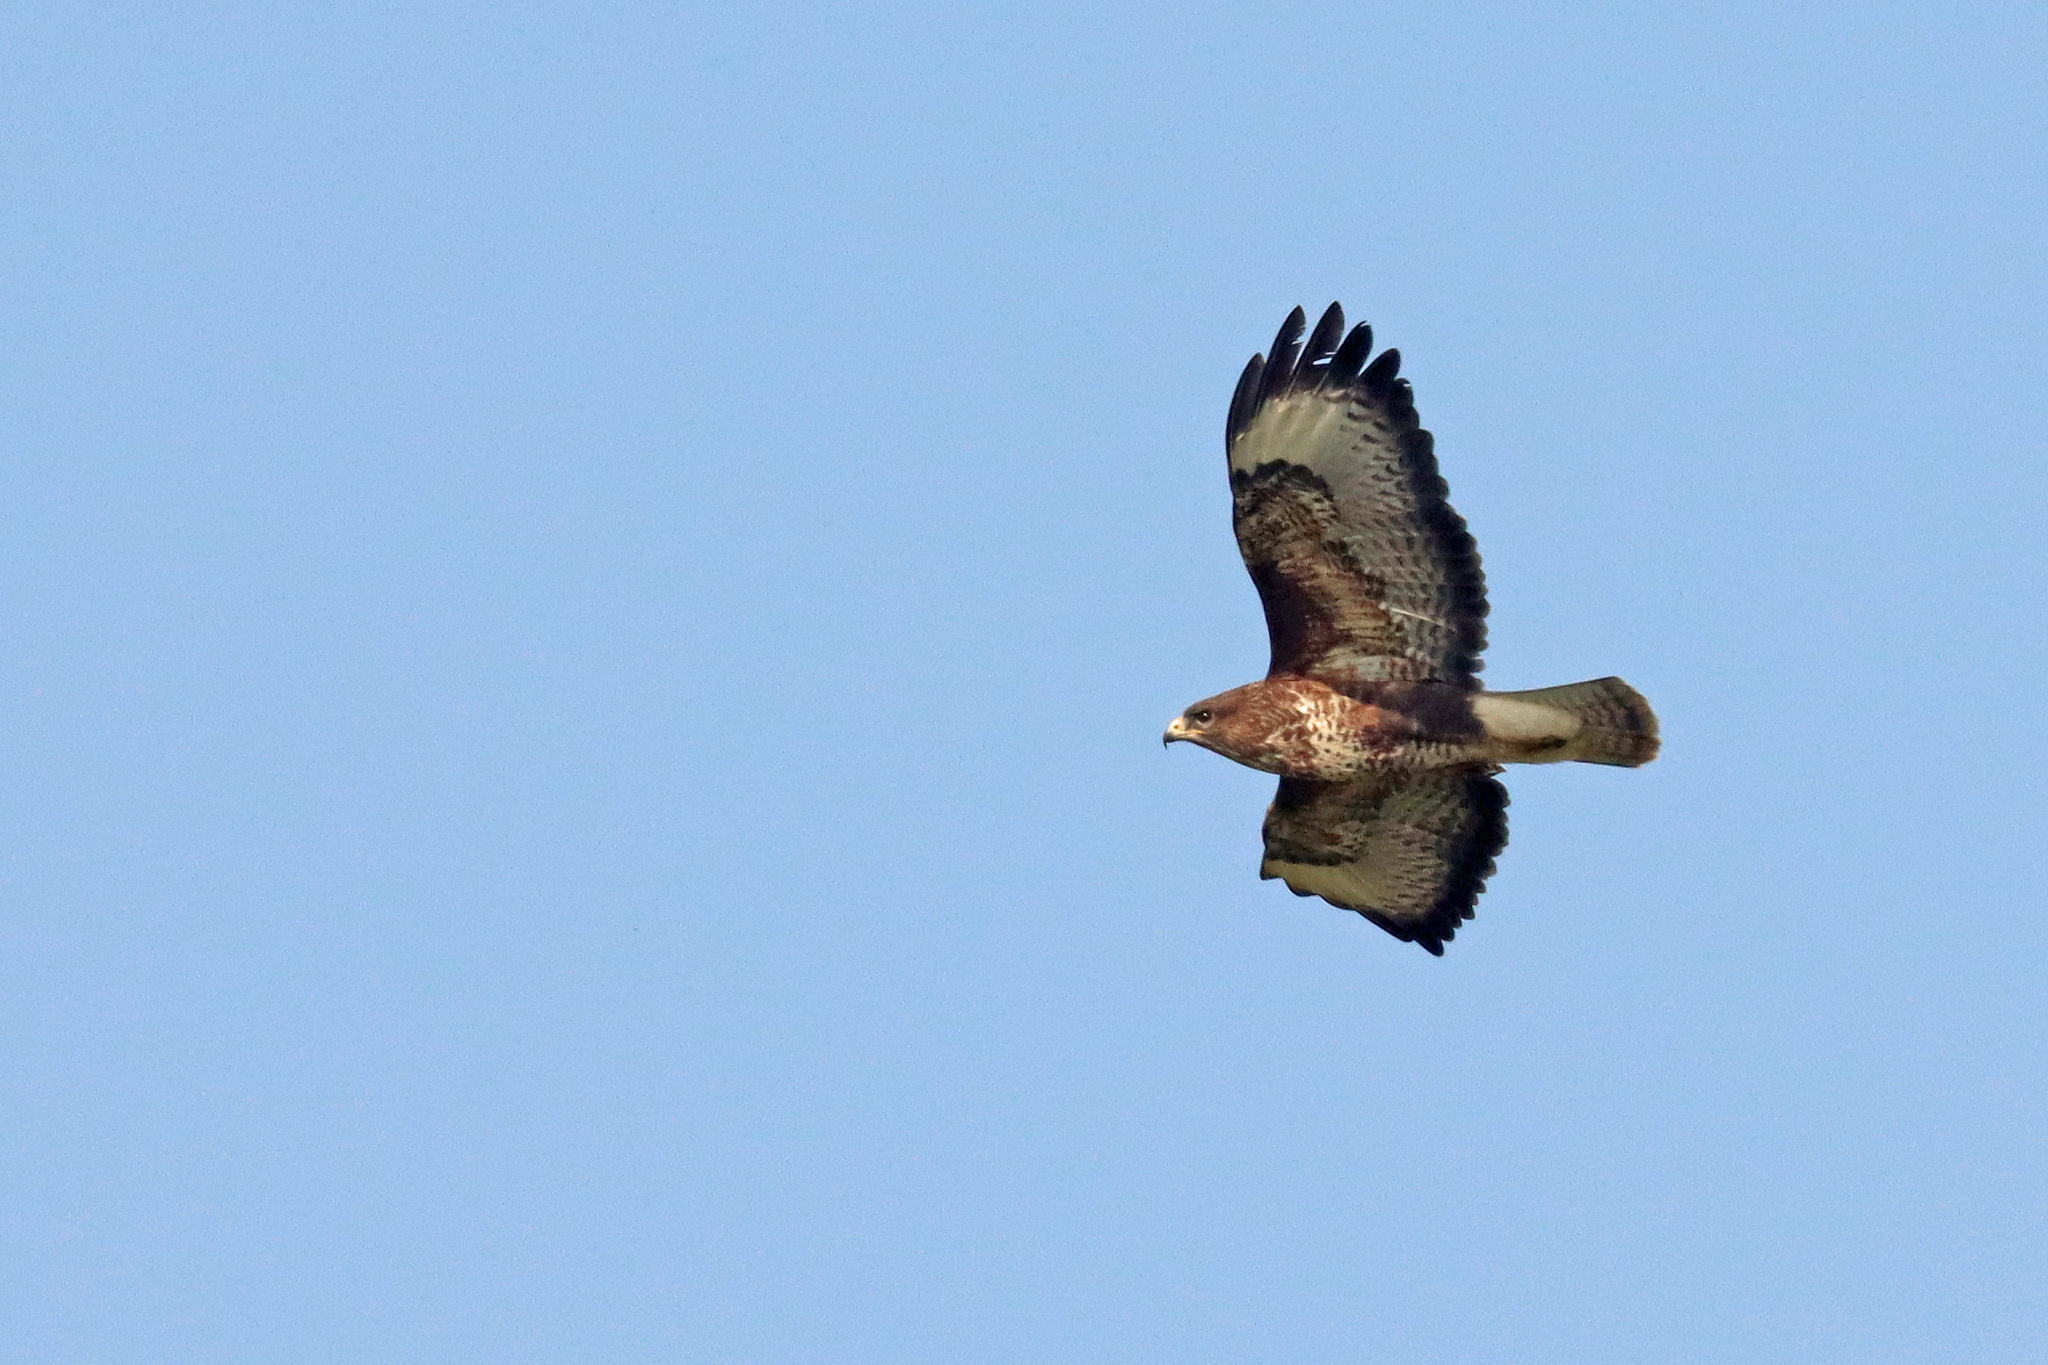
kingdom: Animalia
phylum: Chordata
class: Aves
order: Accipitriformes
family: Accipitridae
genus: Buteo
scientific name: Buteo buteo
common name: Common buzzard
